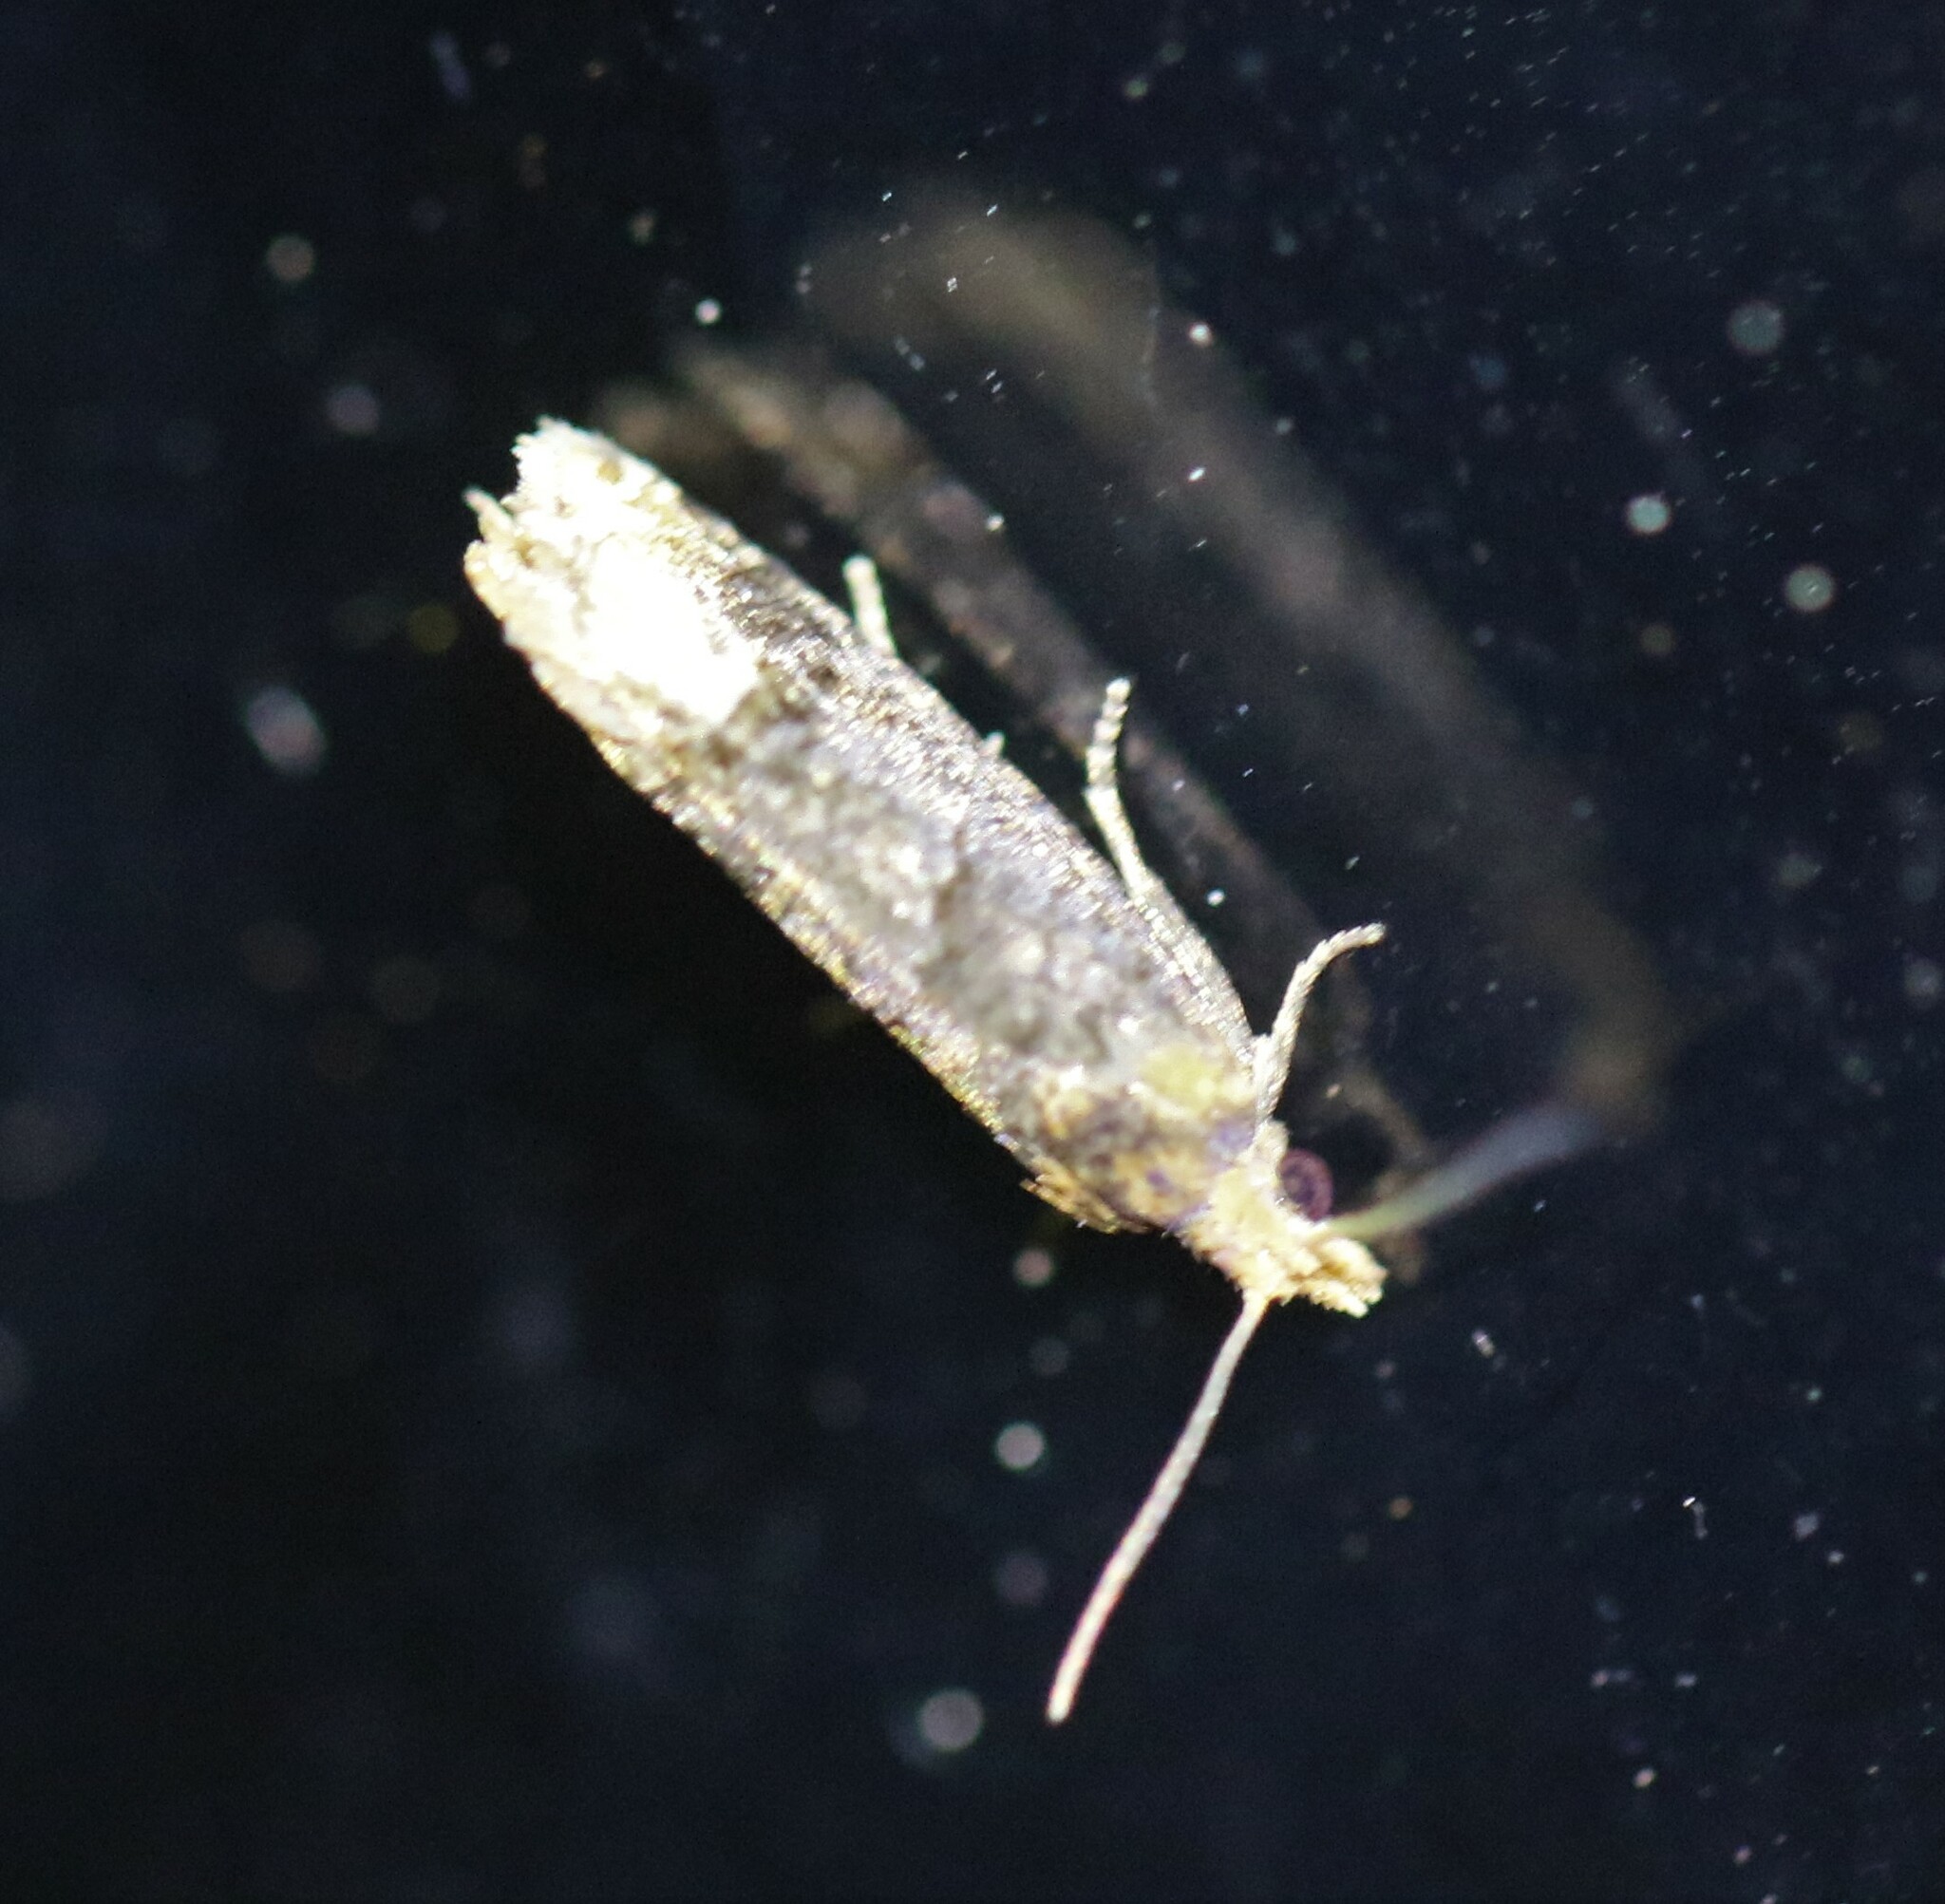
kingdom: Animalia
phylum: Arthropoda
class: Insecta
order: Lepidoptera
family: Tortricidae
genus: Eucosma
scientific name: Eucosma ochroterminana
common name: Buff-tipped eucosma moth
